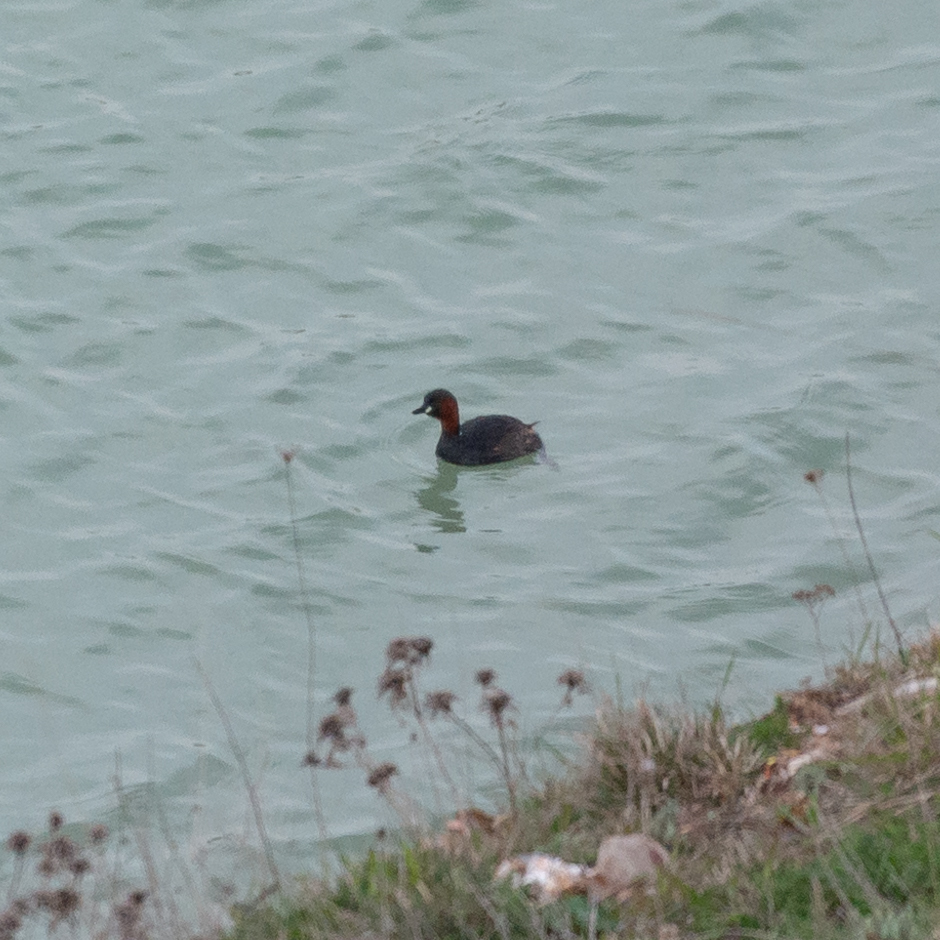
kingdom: Animalia
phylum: Chordata
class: Aves
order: Podicipediformes
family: Podicipedidae
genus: Tachybaptus
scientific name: Tachybaptus ruficollis
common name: Little grebe
